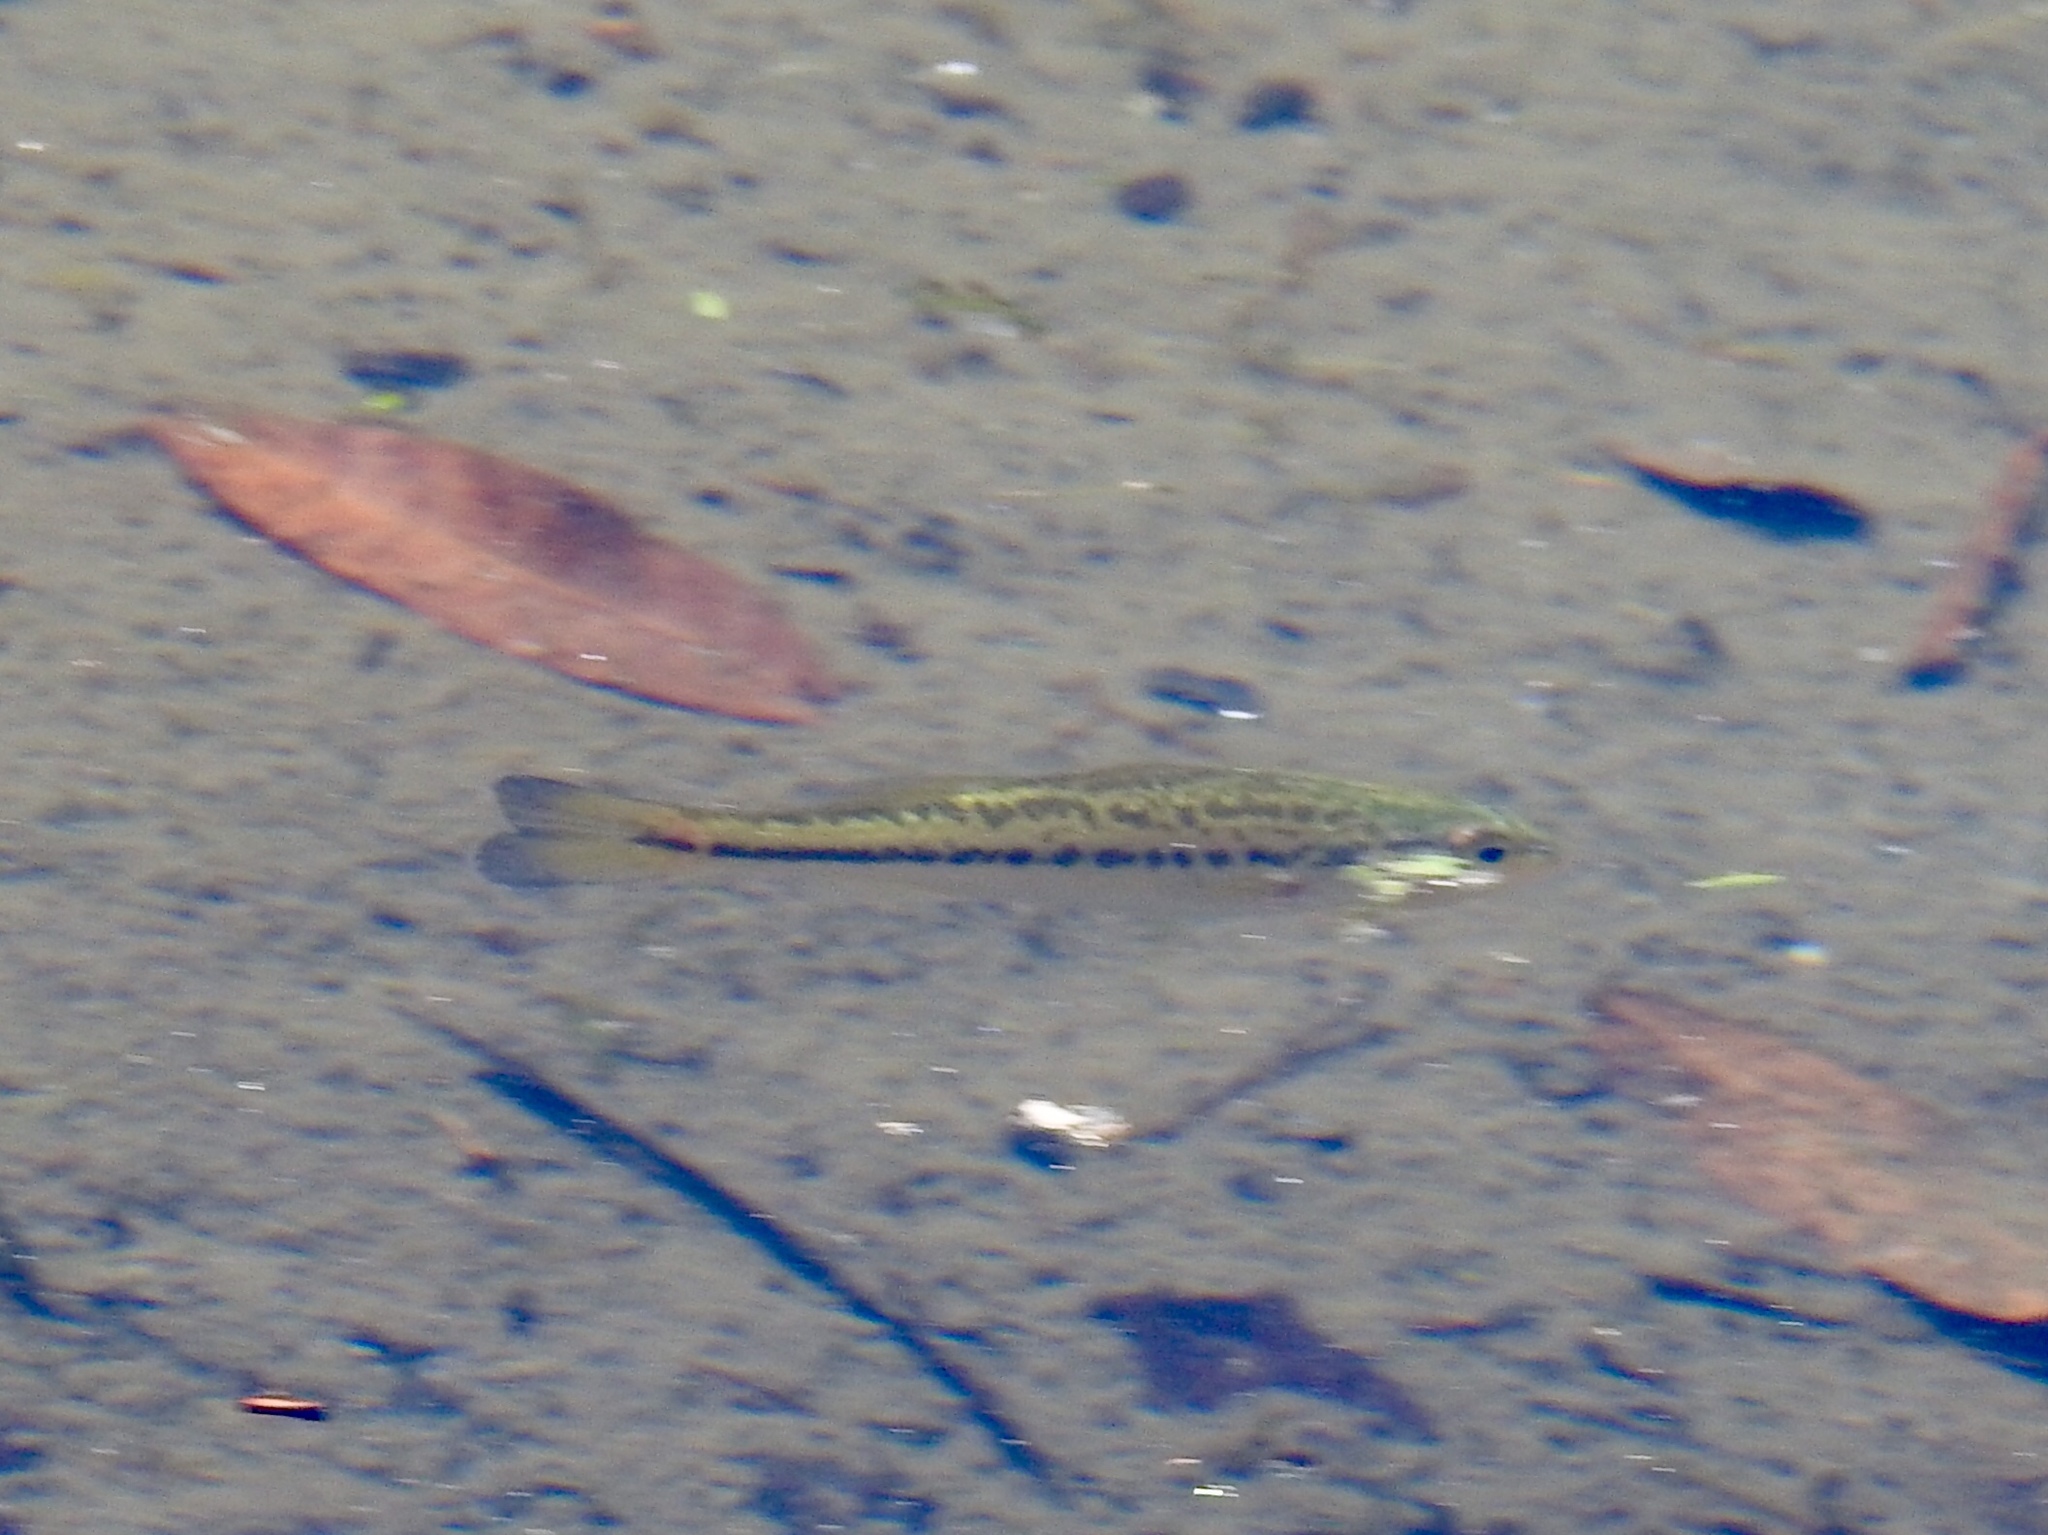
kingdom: Animalia
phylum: Chordata
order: Perciformes
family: Centrarchidae
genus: Micropterus
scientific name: Micropterus
